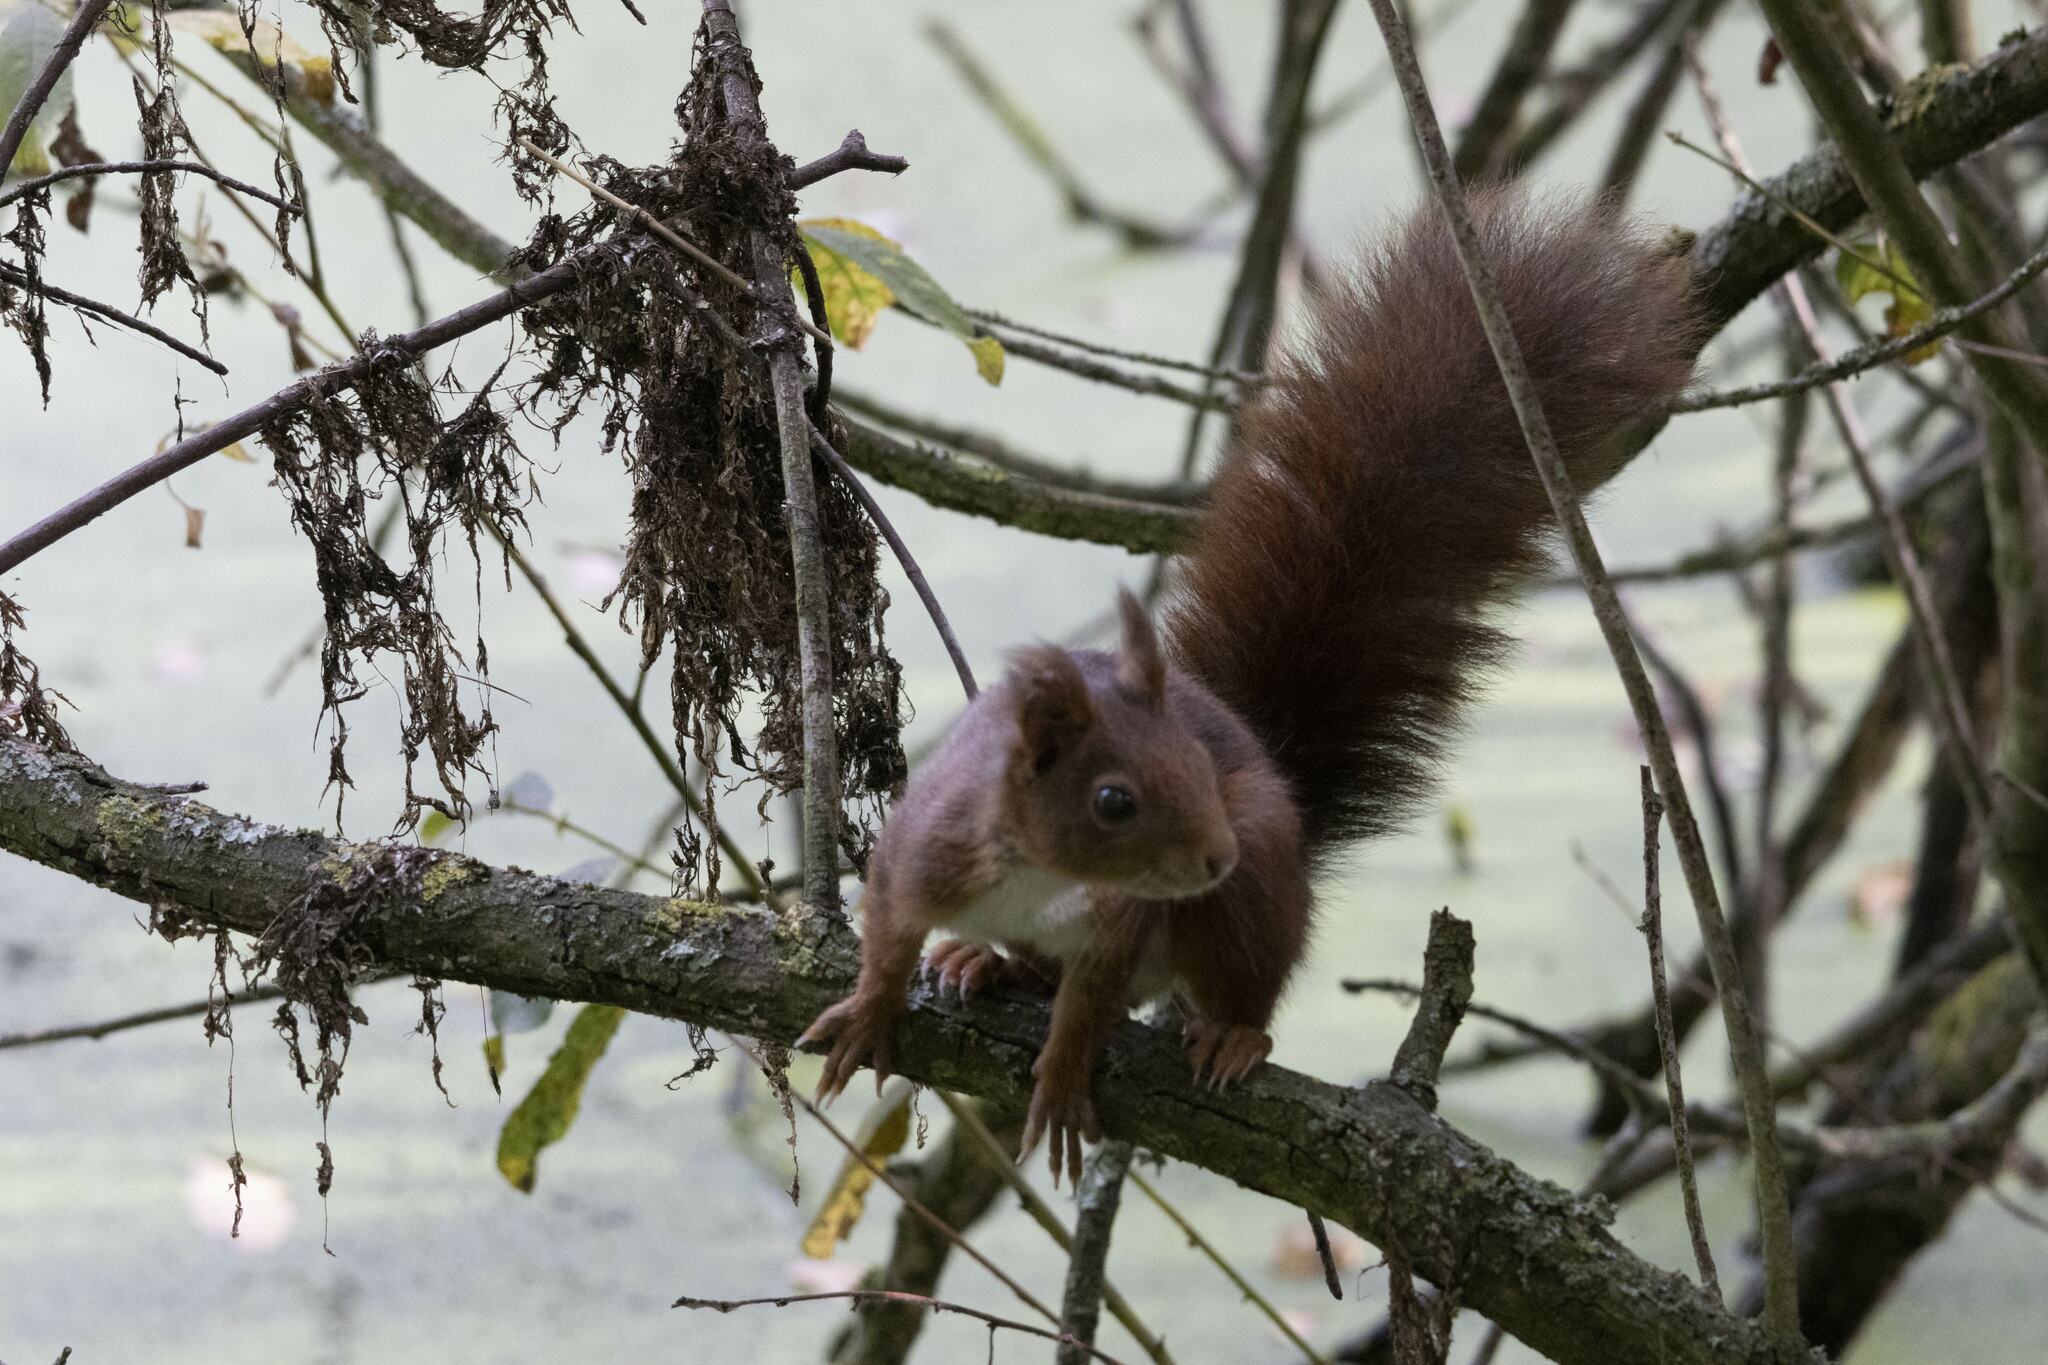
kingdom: Animalia
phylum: Chordata
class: Mammalia
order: Rodentia
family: Sciuridae
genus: Sciurus
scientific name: Sciurus vulgaris
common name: Eurasian red squirrel
